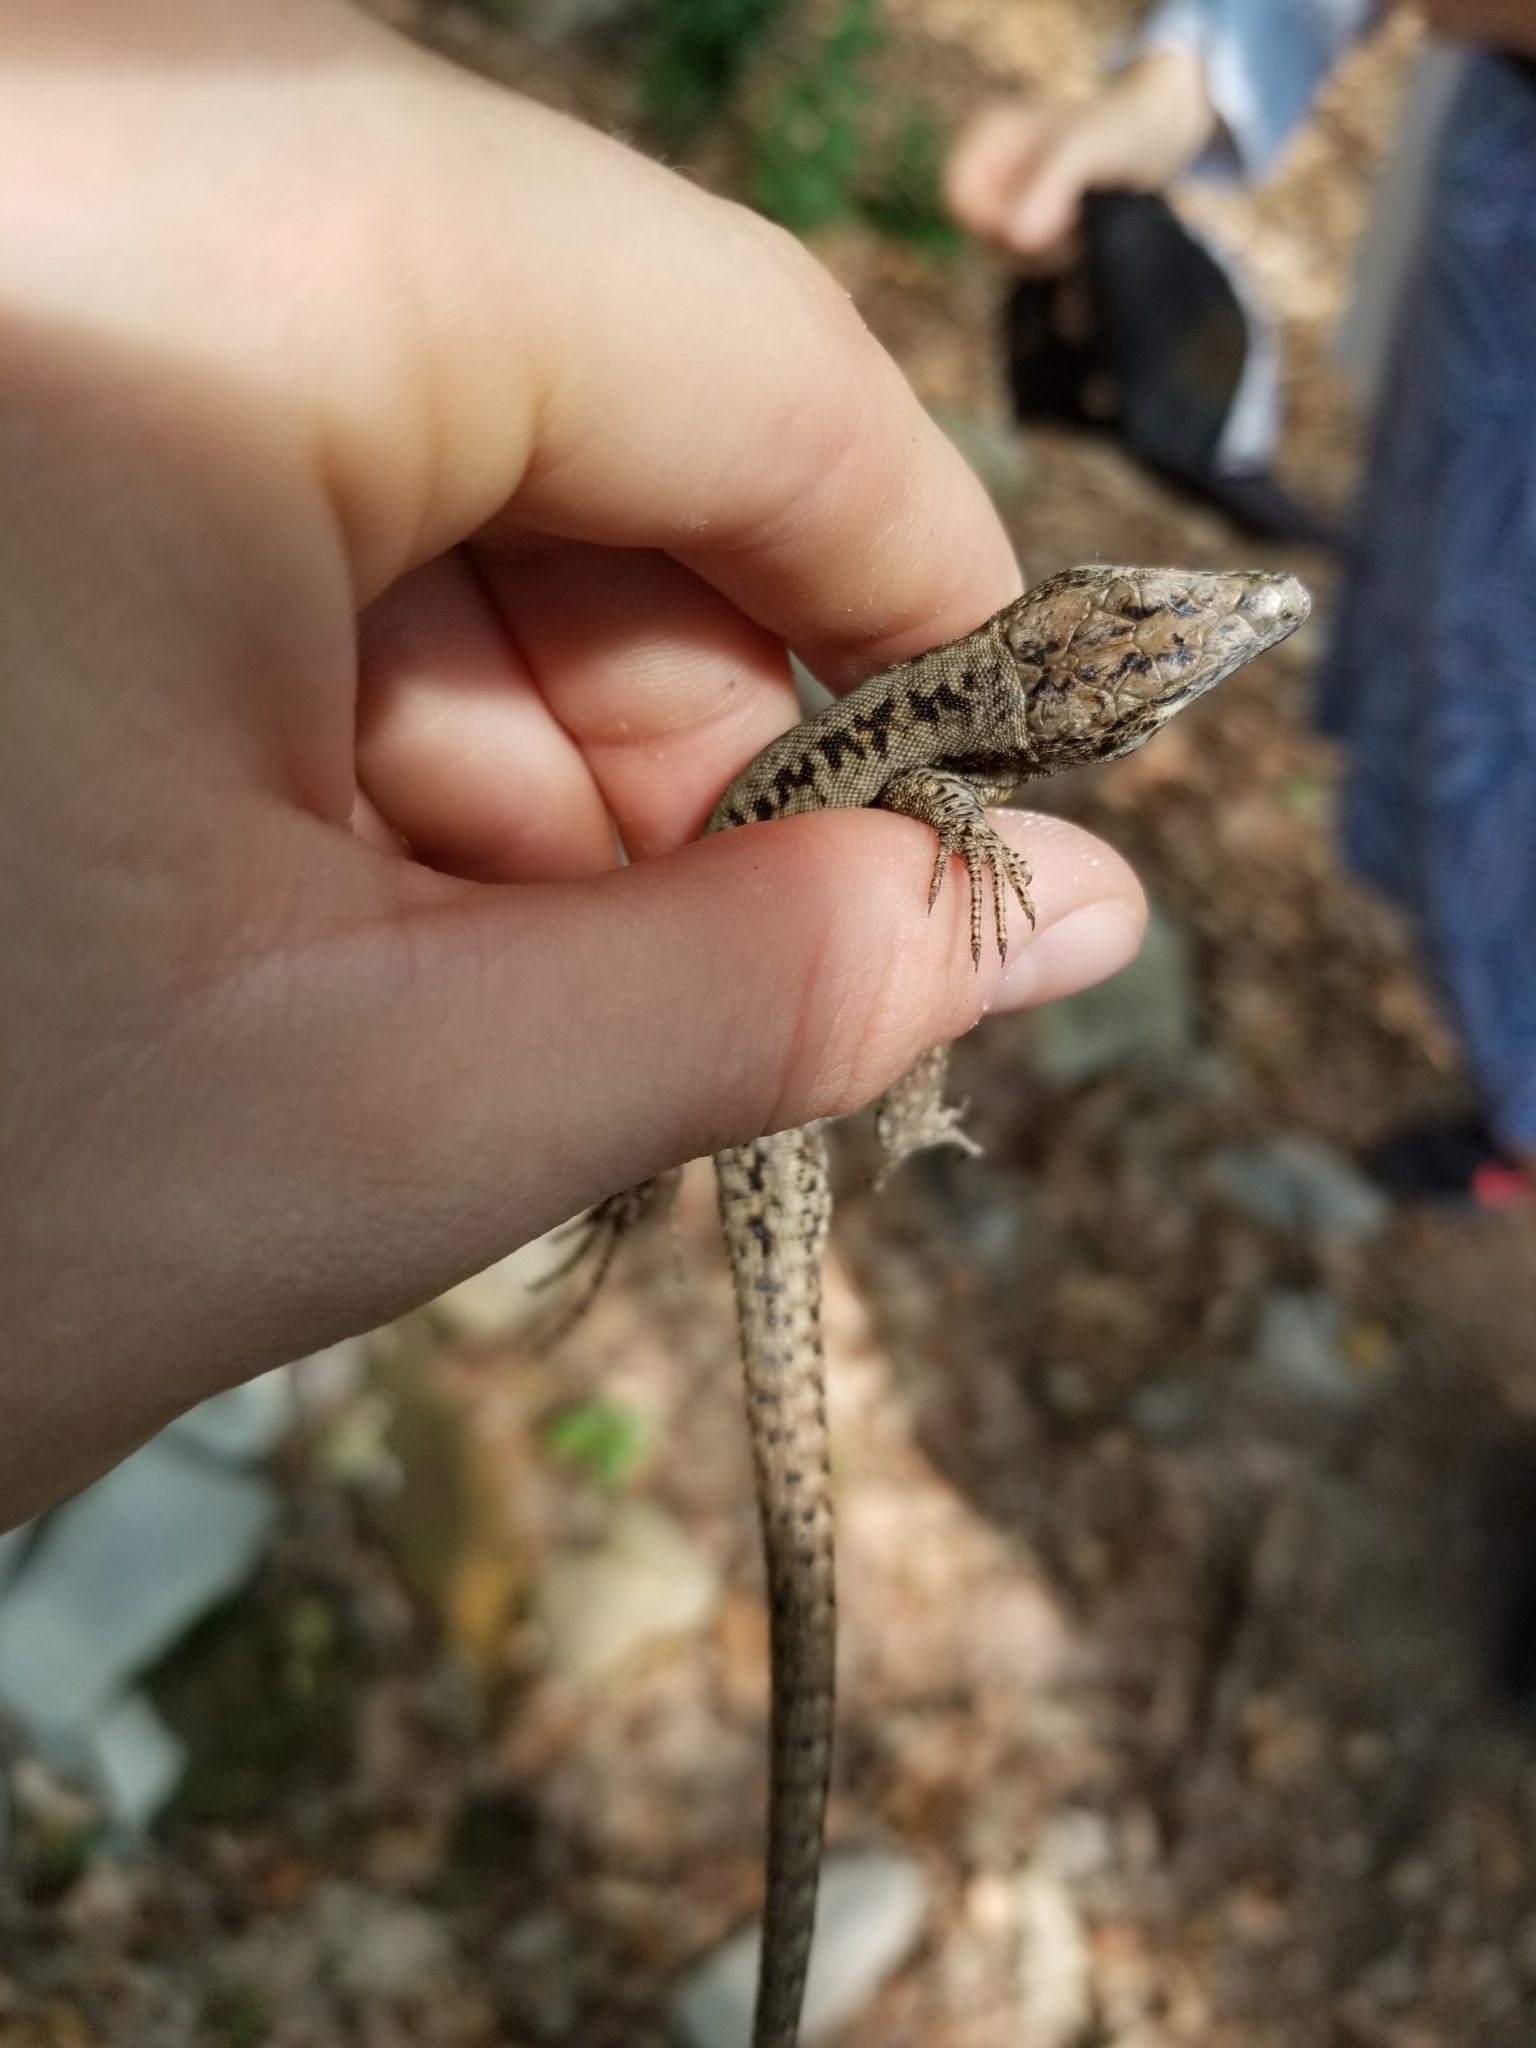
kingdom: Animalia
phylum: Chordata
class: Squamata
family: Lacertidae
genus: Podarcis
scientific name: Podarcis muralis
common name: Common wall lizard
